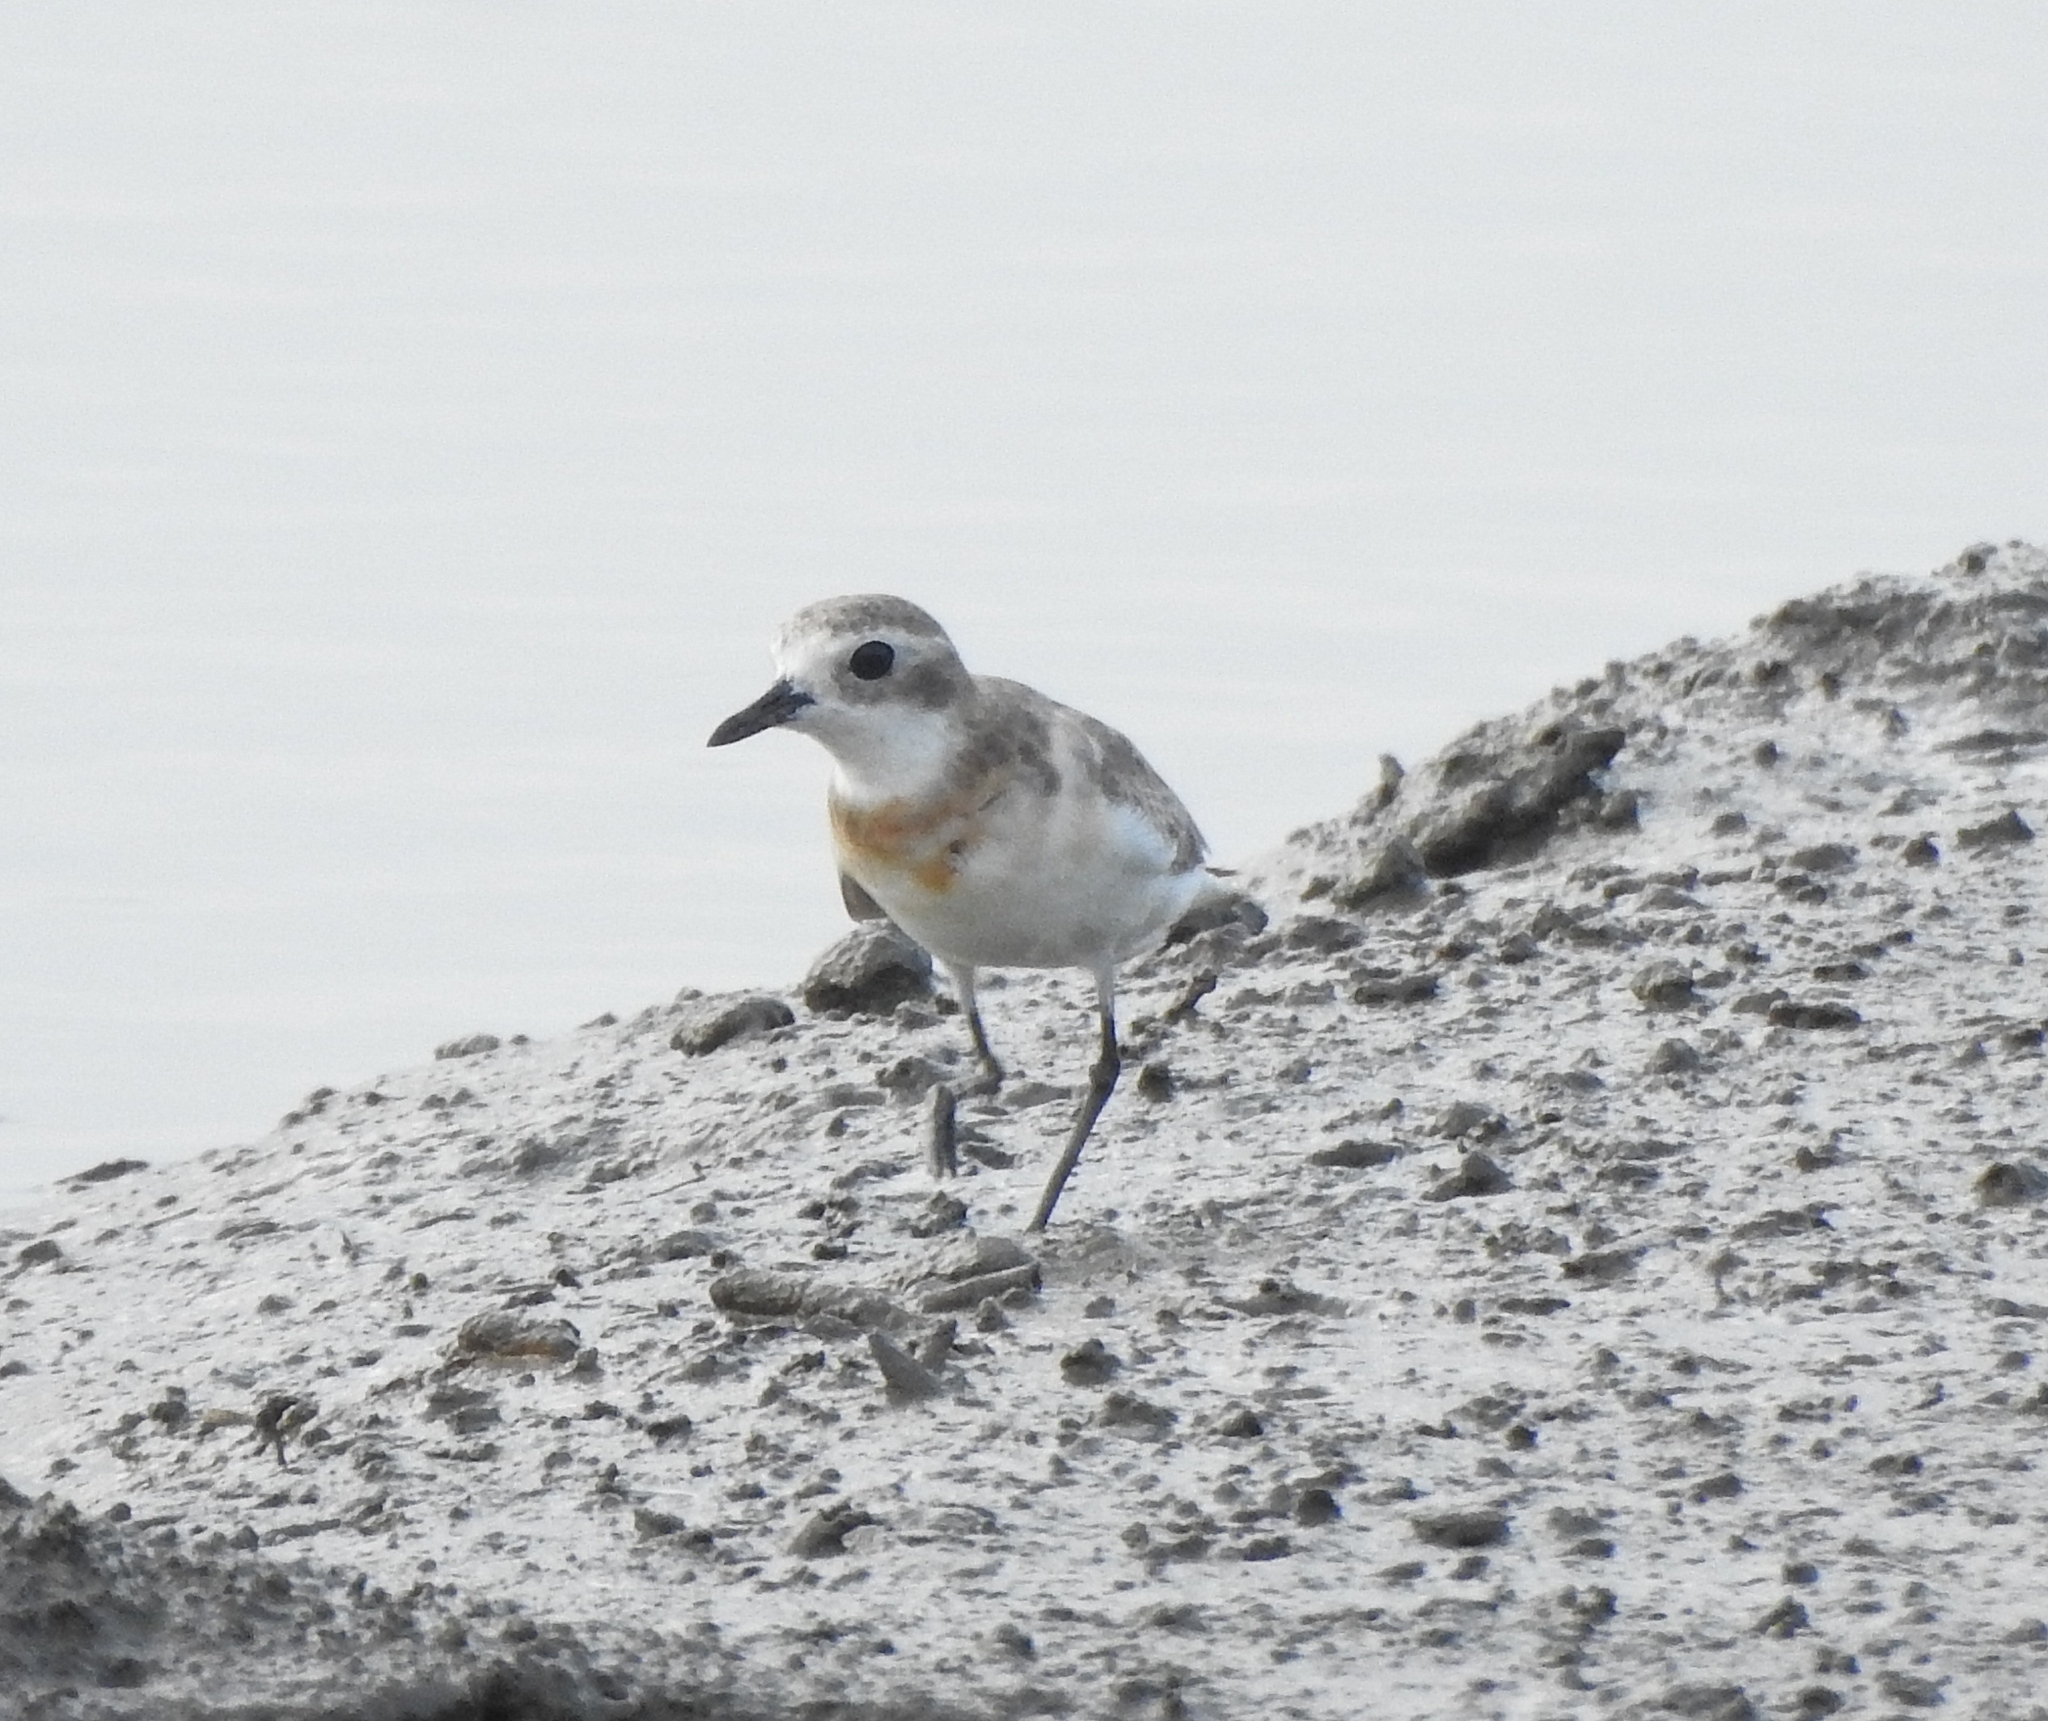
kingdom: Animalia
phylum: Chordata
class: Aves
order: Charadriiformes
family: Charadriidae
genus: Anarhynchus
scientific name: Anarhynchus
